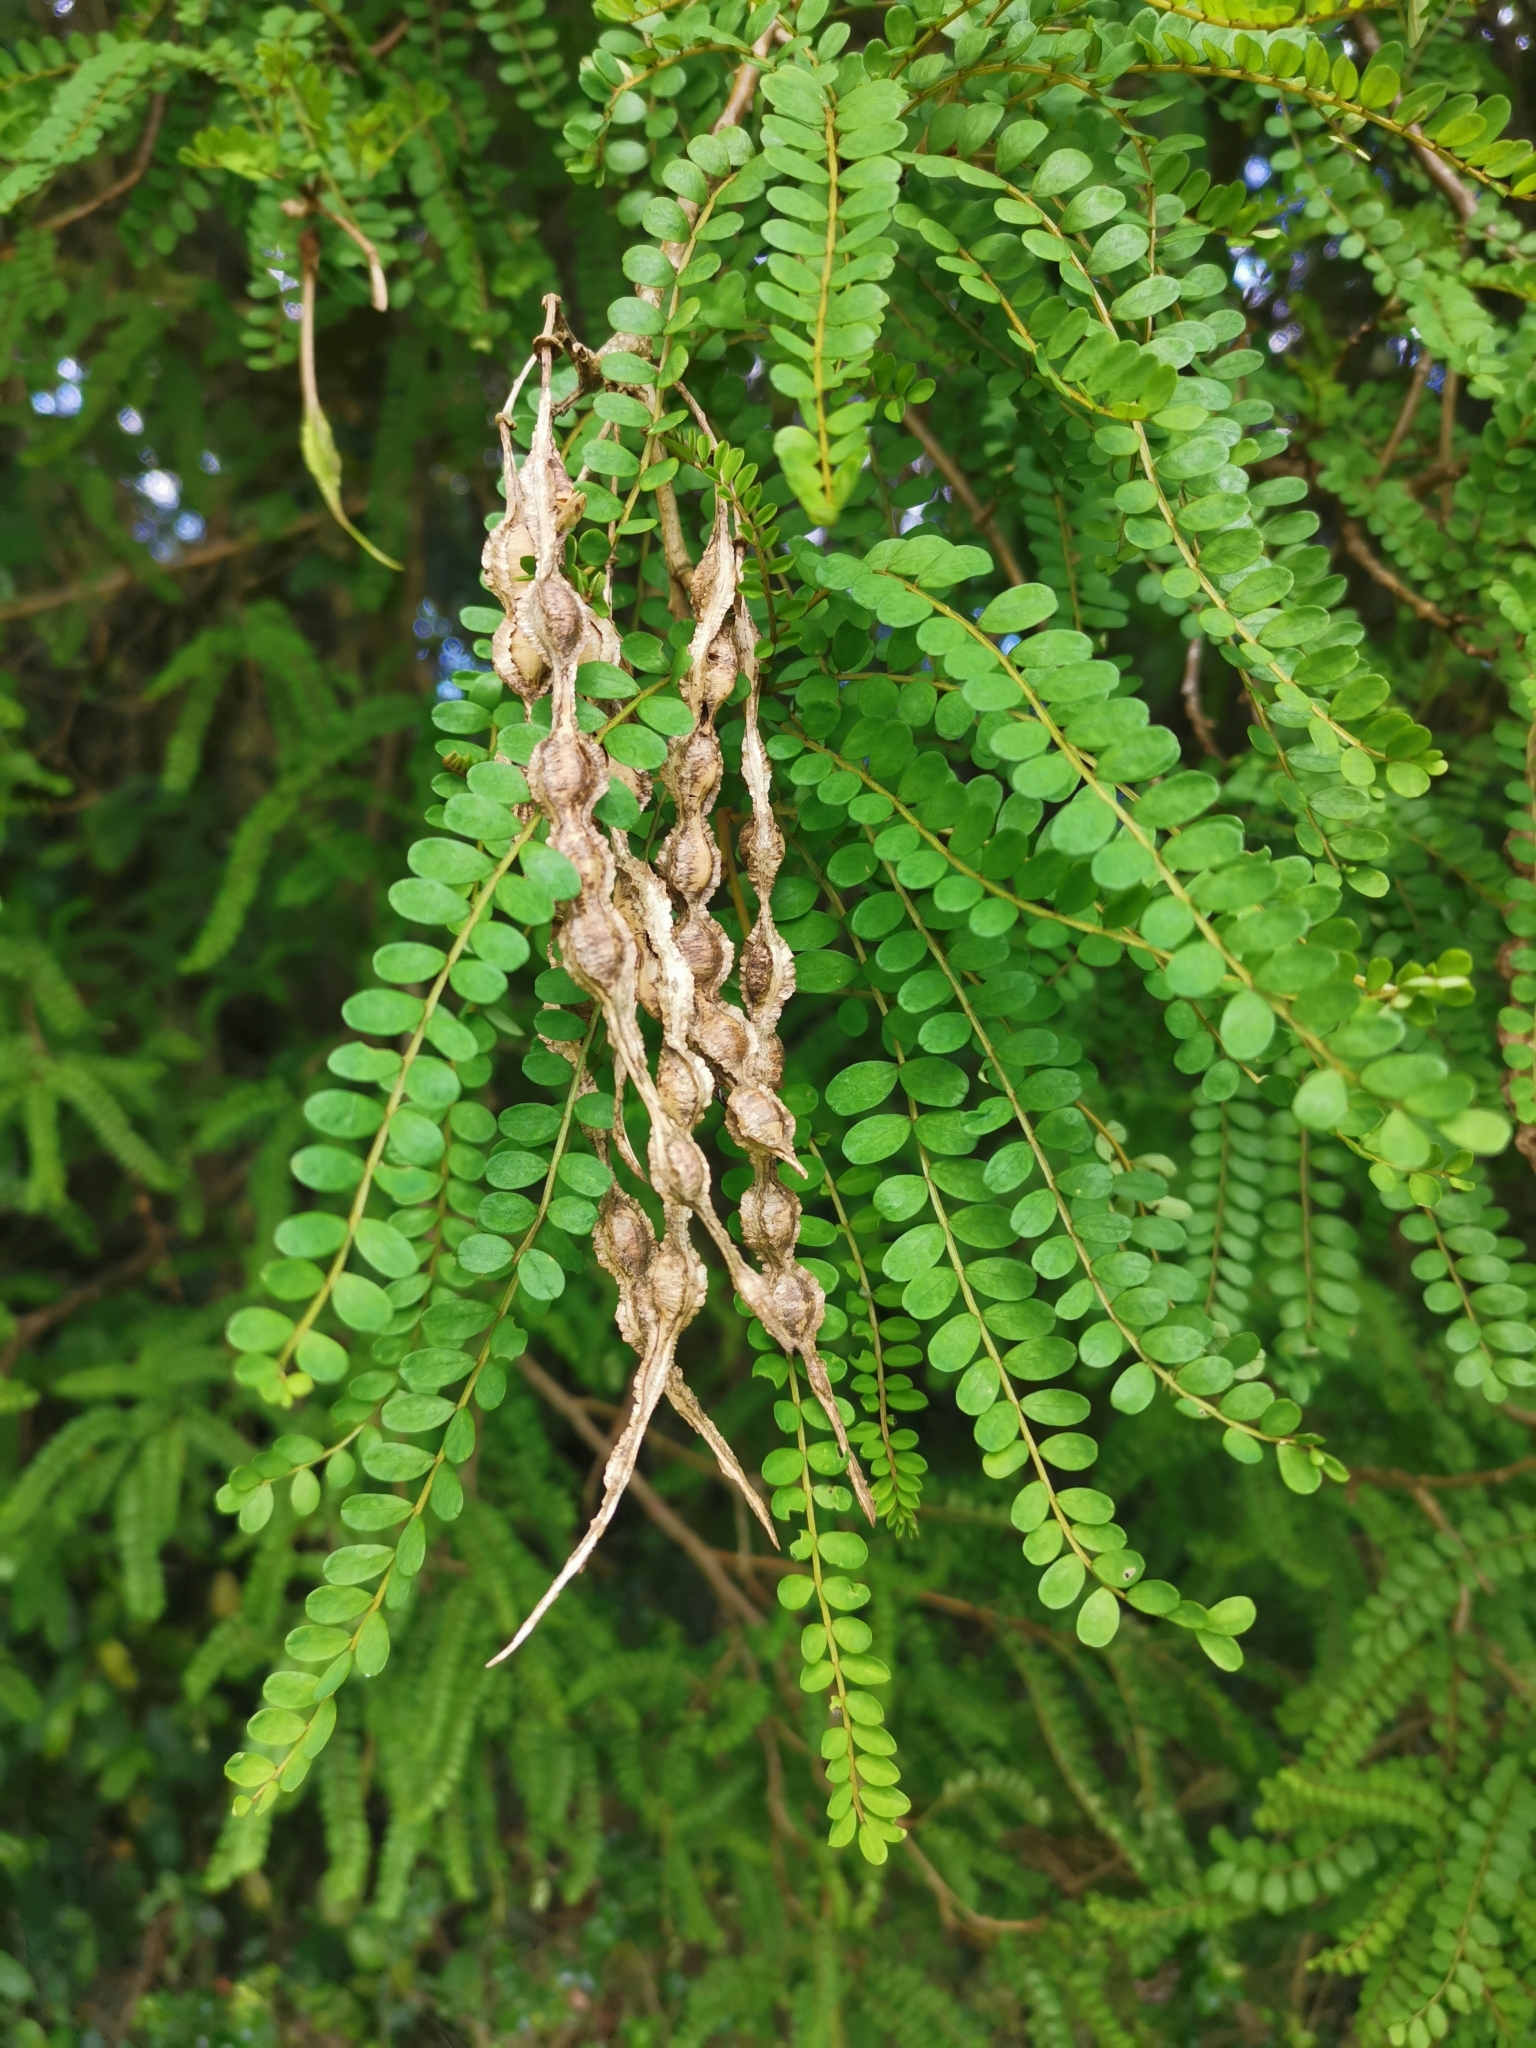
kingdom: Plantae
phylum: Tracheophyta
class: Magnoliopsida
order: Fabales
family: Fabaceae
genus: Sophora
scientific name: Sophora cassioides
